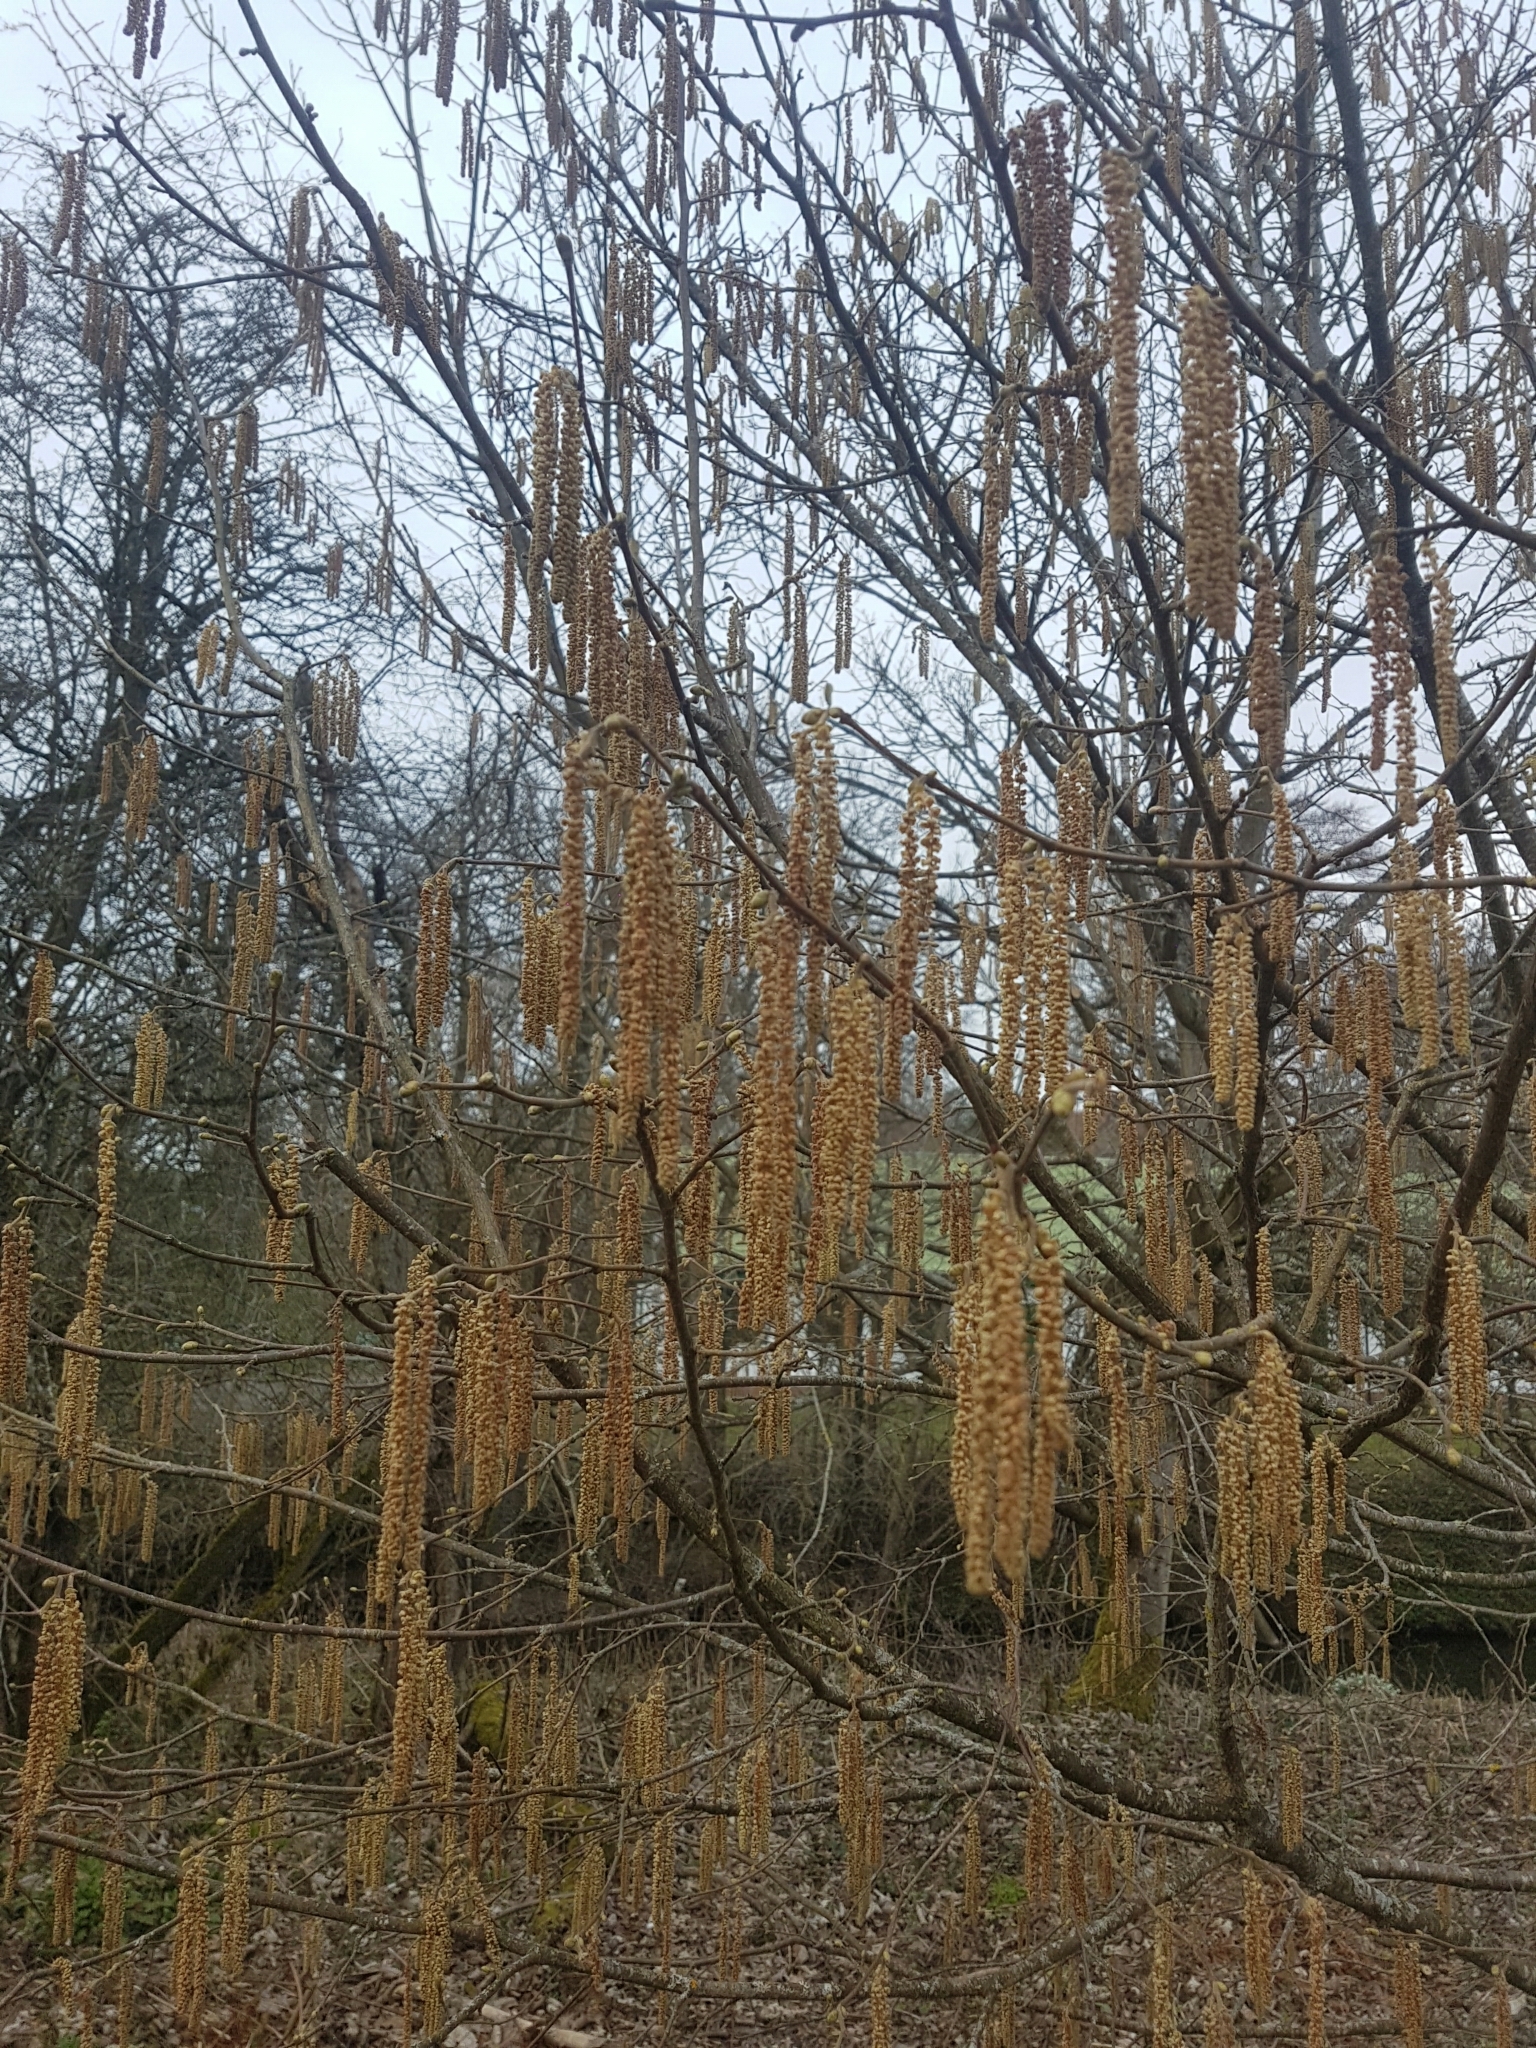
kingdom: Plantae
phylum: Tracheophyta
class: Magnoliopsida
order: Fagales
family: Betulaceae
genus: Alnus
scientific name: Alnus glutinosa
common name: Black alder
